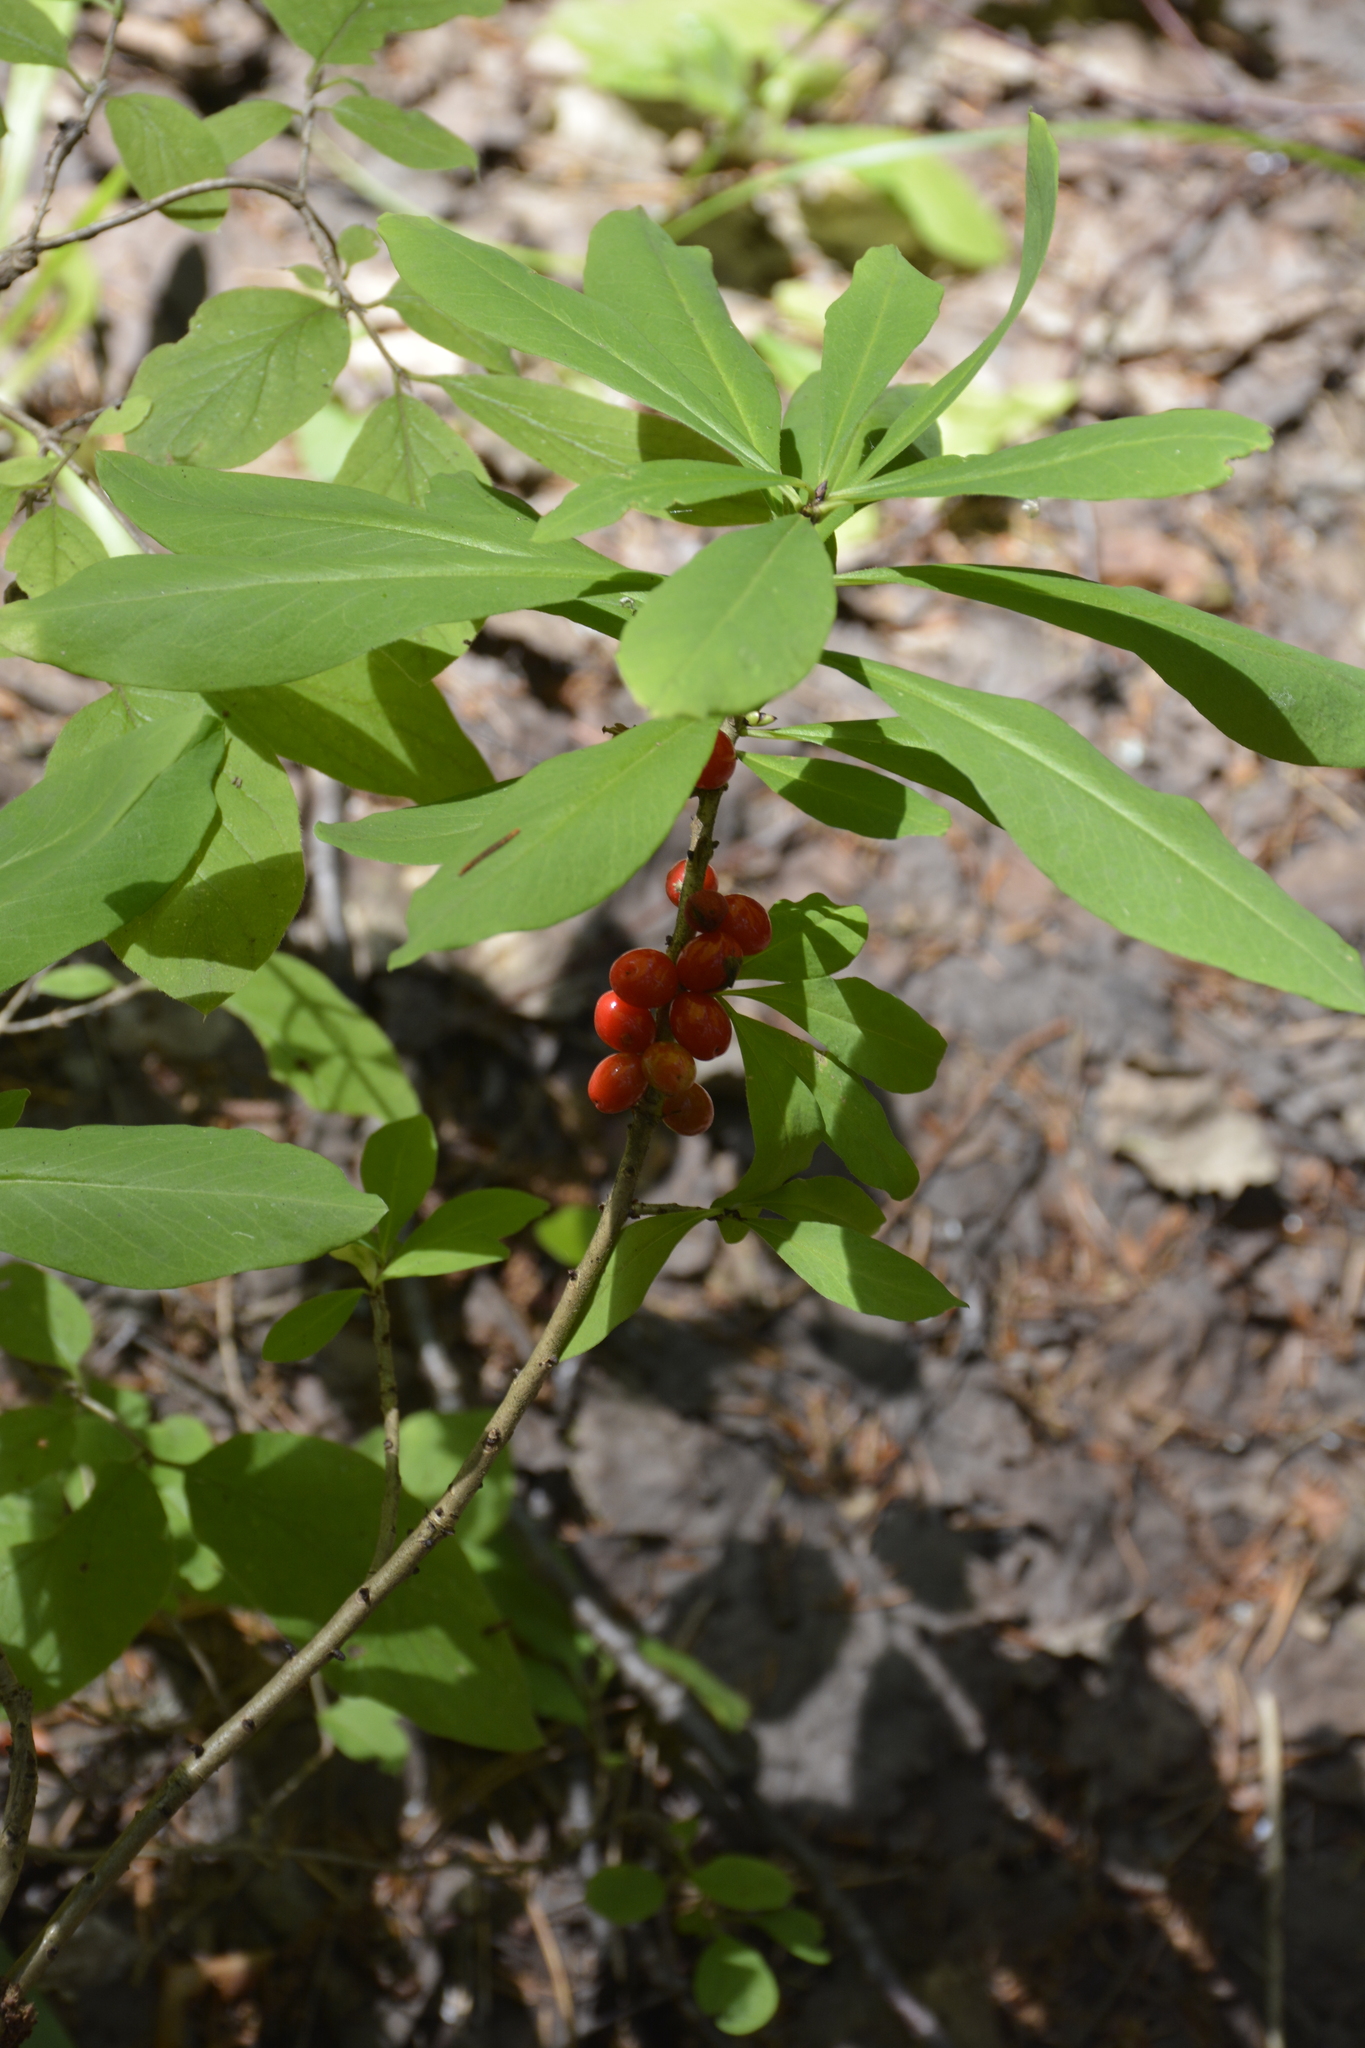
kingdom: Plantae
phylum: Tracheophyta
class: Magnoliopsida
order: Malvales
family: Thymelaeaceae
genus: Daphne
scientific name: Daphne mezereum
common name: Mezereon
